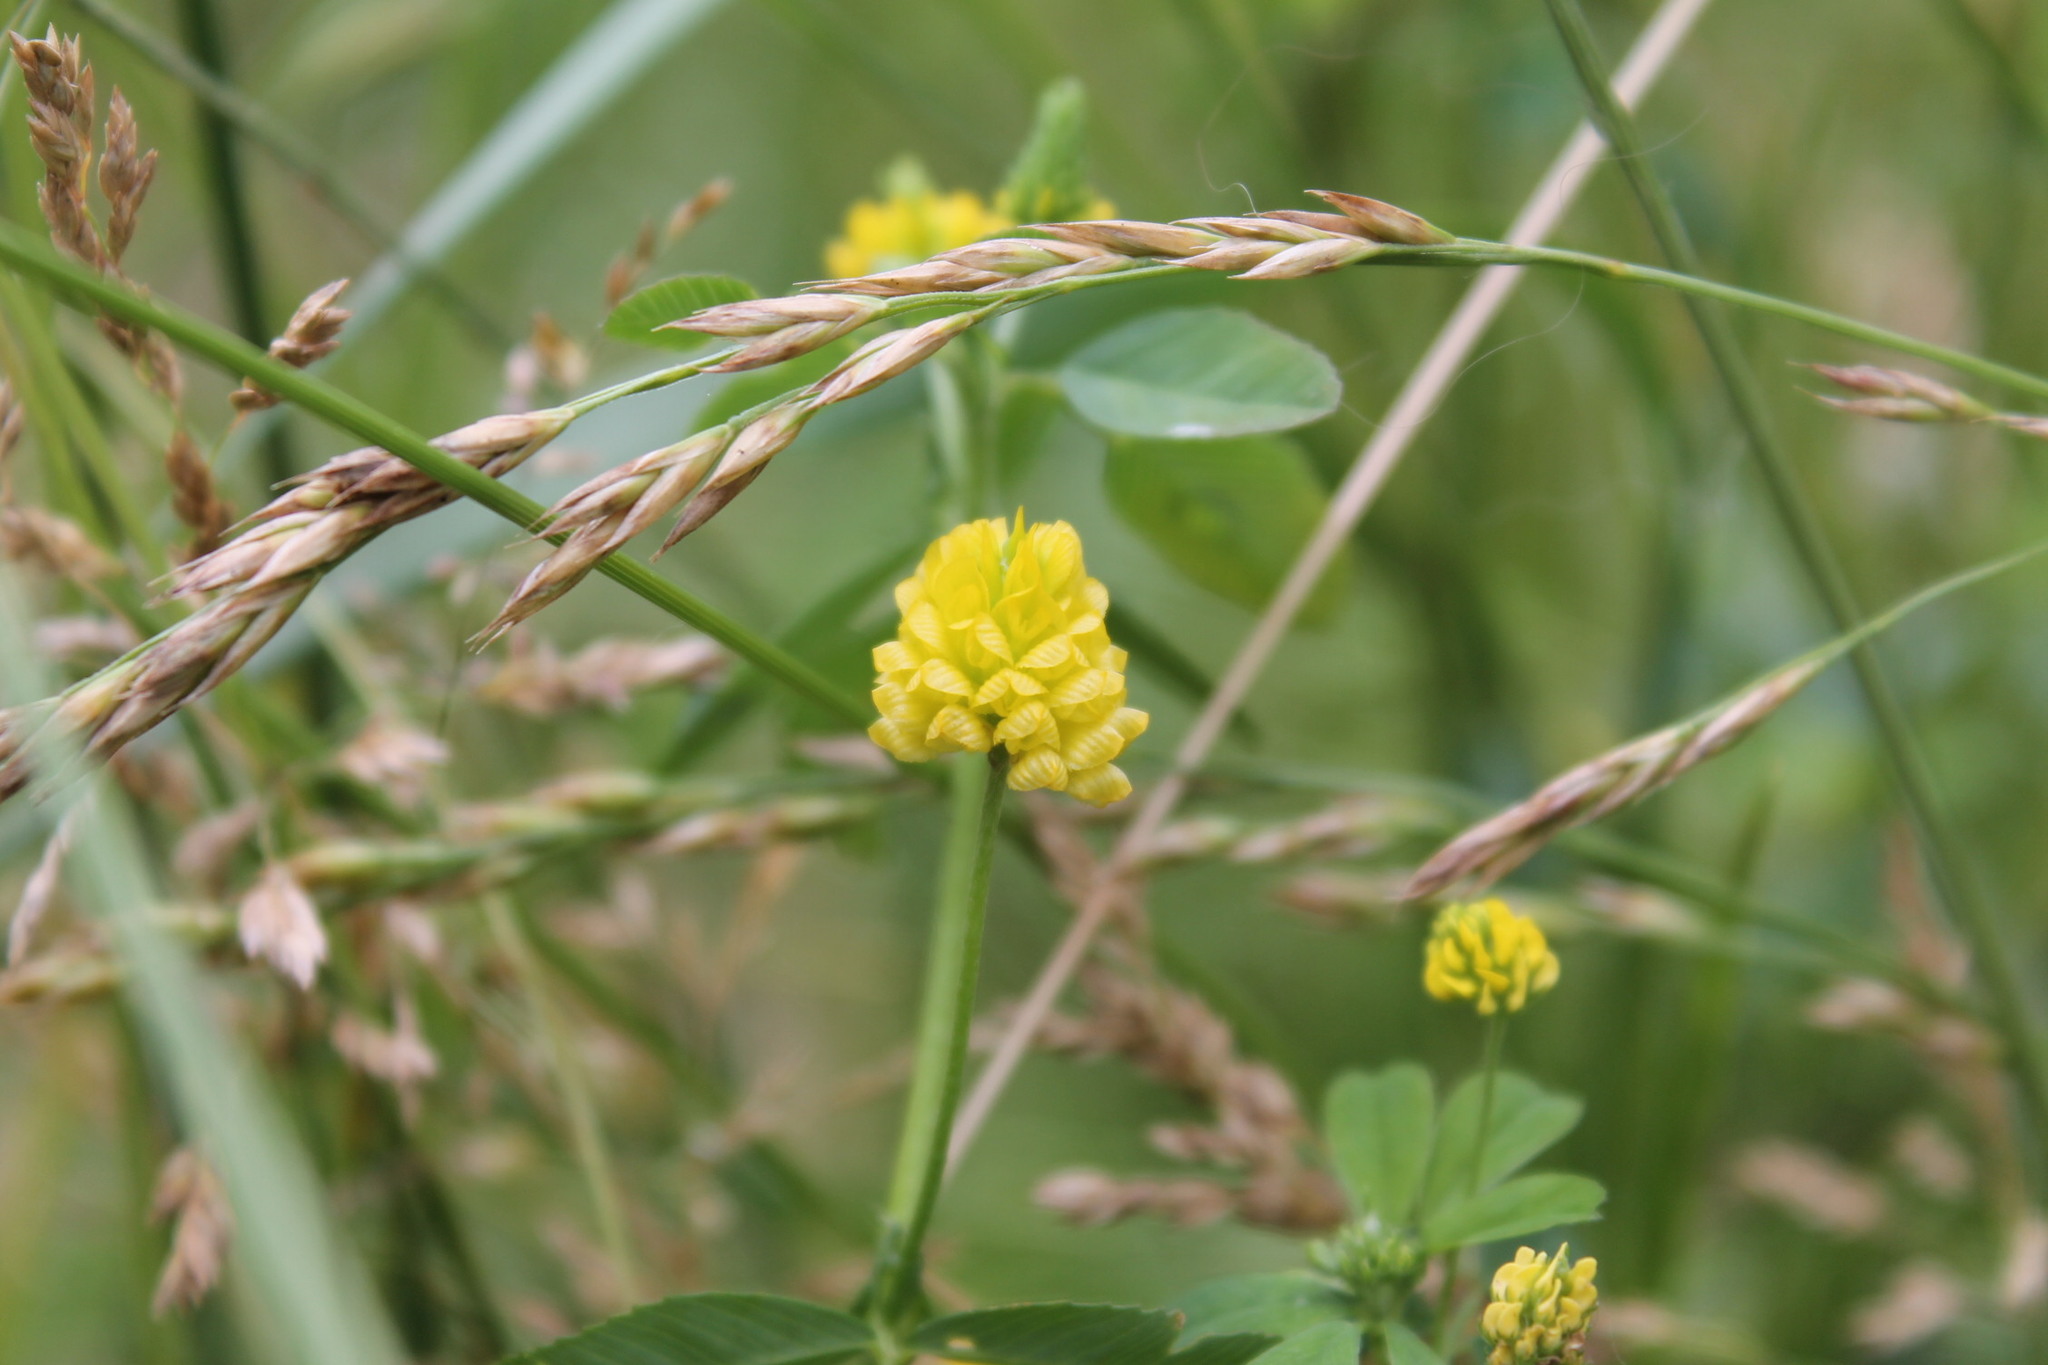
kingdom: Plantae
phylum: Tracheophyta
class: Magnoliopsida
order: Fabales
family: Fabaceae
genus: Trifolium
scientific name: Trifolium campestre
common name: Field clover
